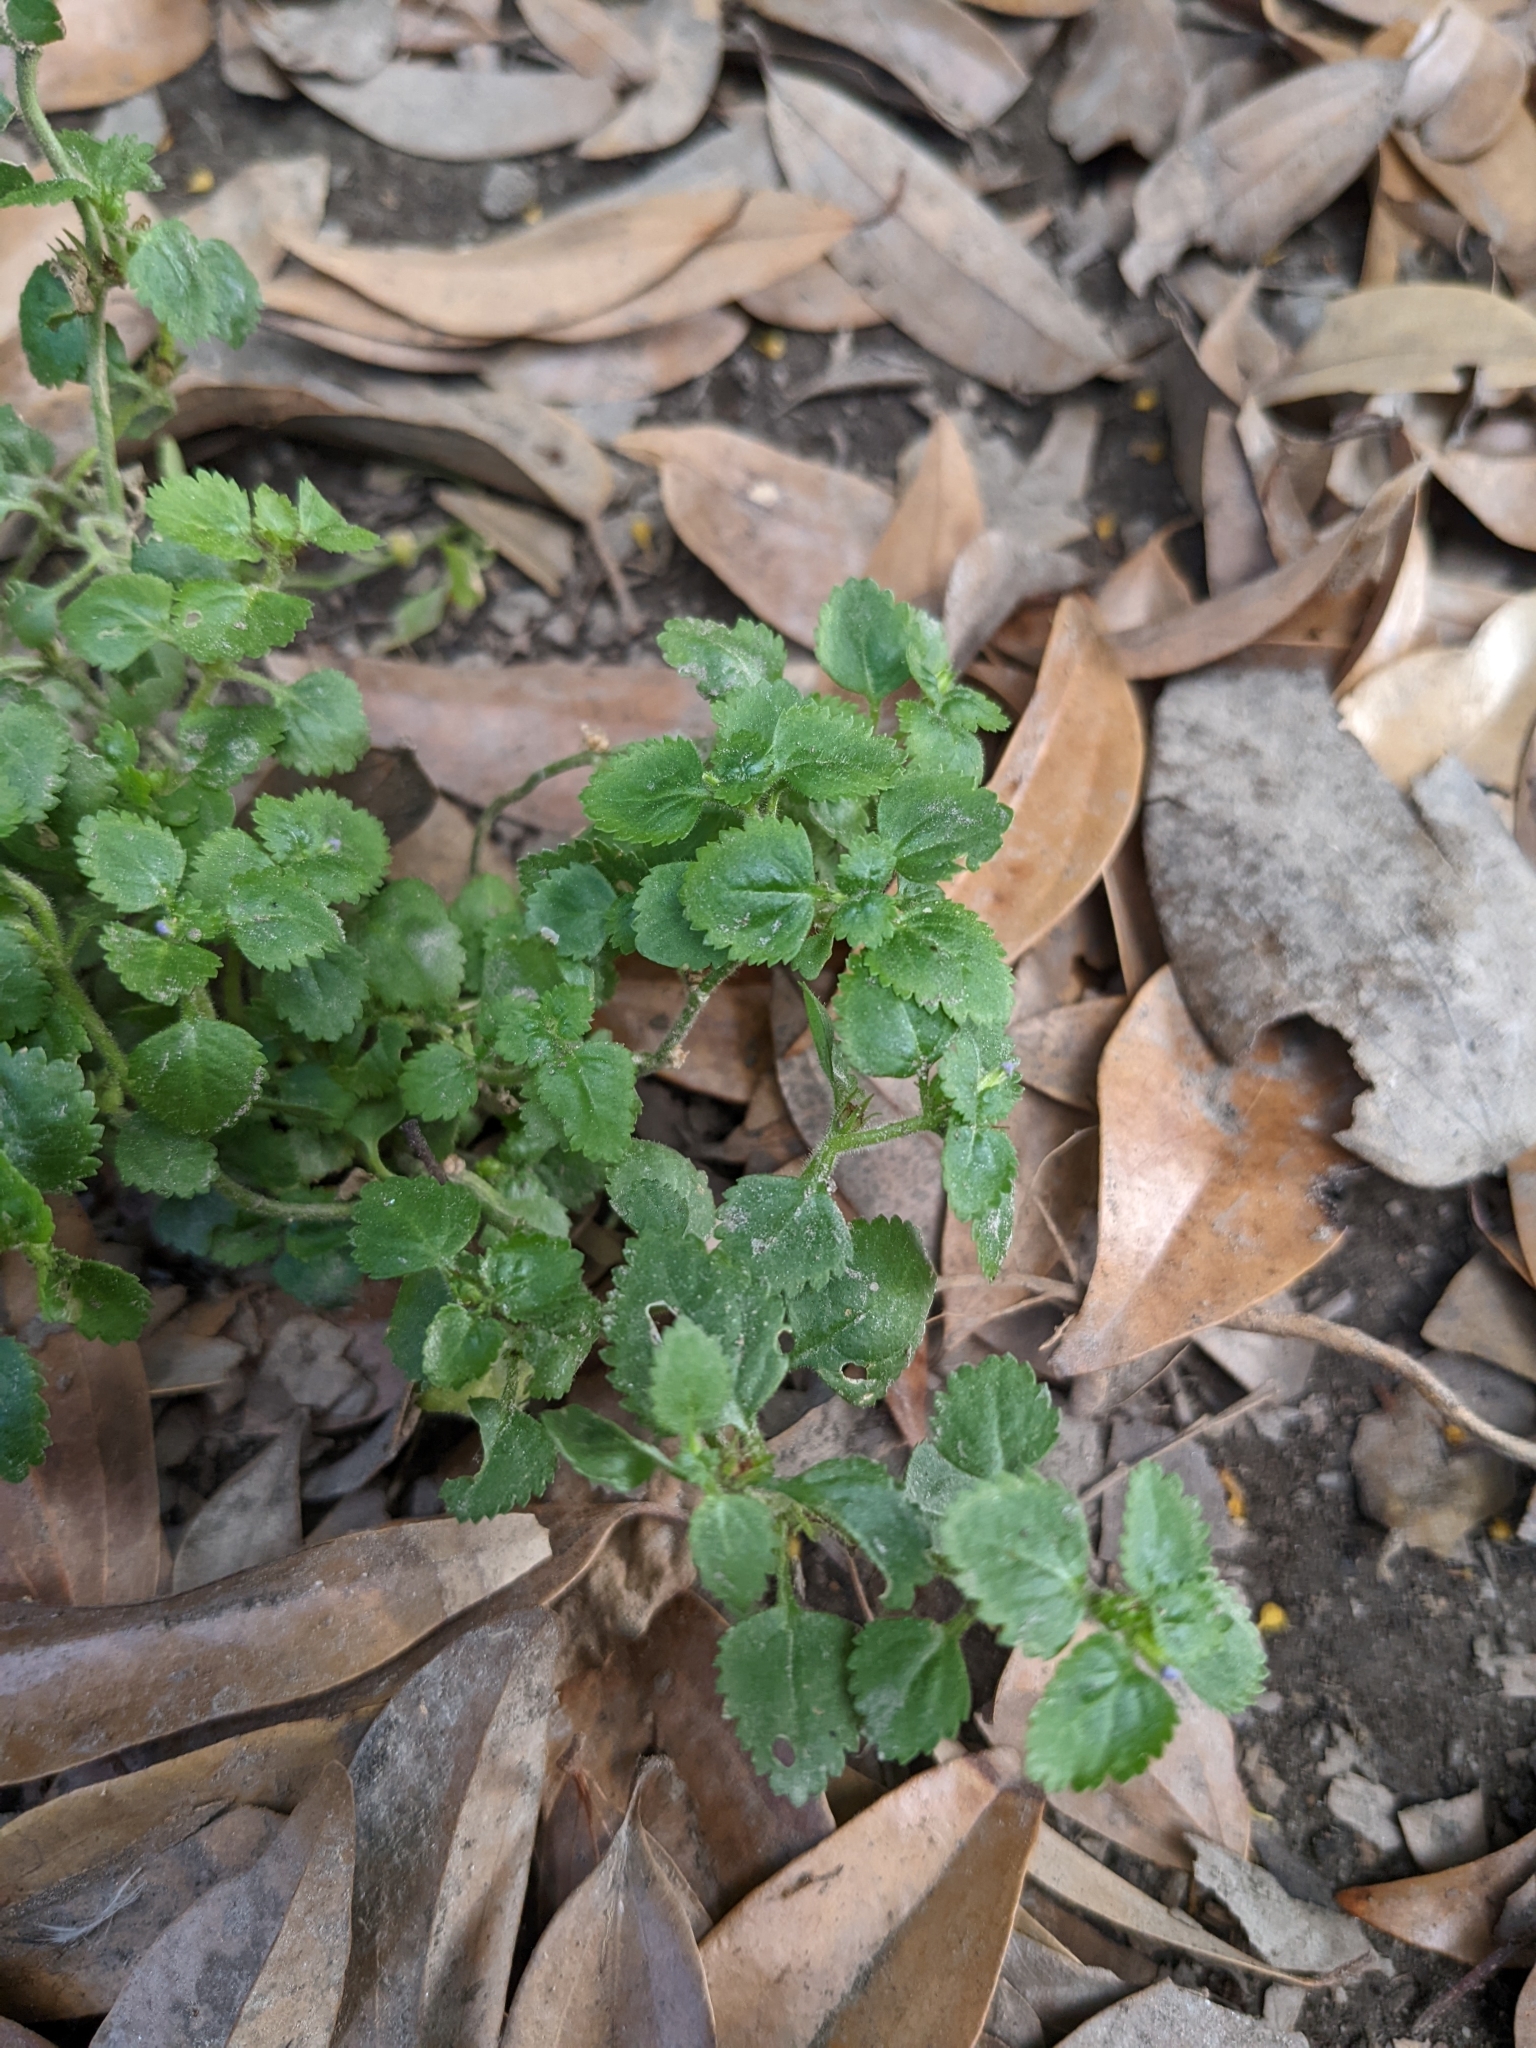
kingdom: Plantae
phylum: Tracheophyta
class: Magnoliopsida
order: Lamiales
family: Plantaginaceae
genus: Stemodia
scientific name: Stemodia verticillata
